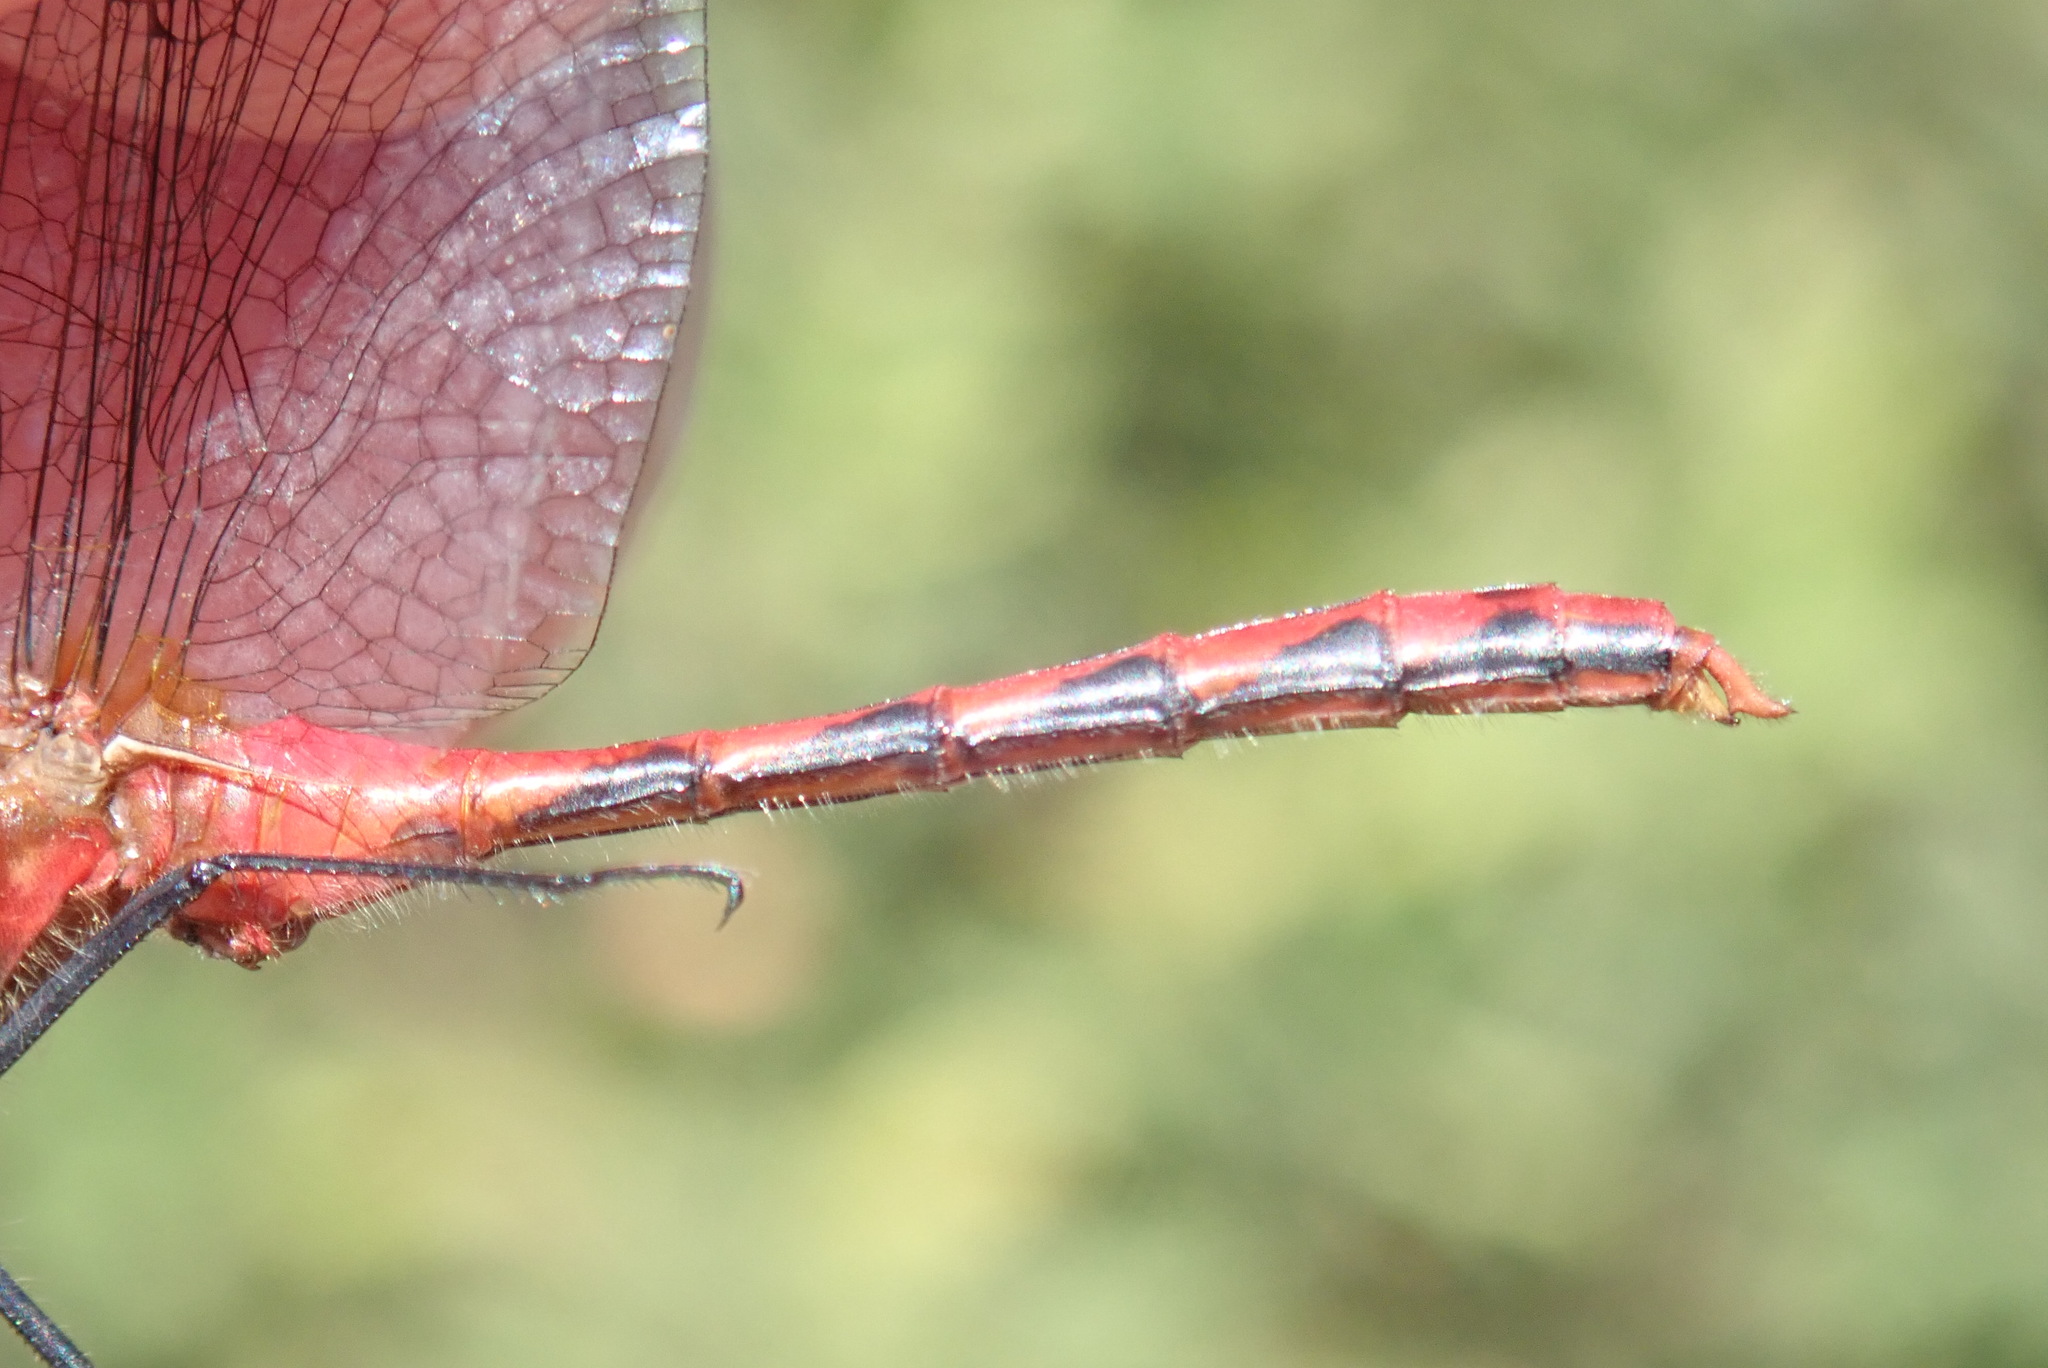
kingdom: Animalia
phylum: Arthropoda
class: Insecta
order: Odonata
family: Libellulidae
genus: Sympetrum
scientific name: Sympetrum obtrusum
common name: White-faced meadowhawk
